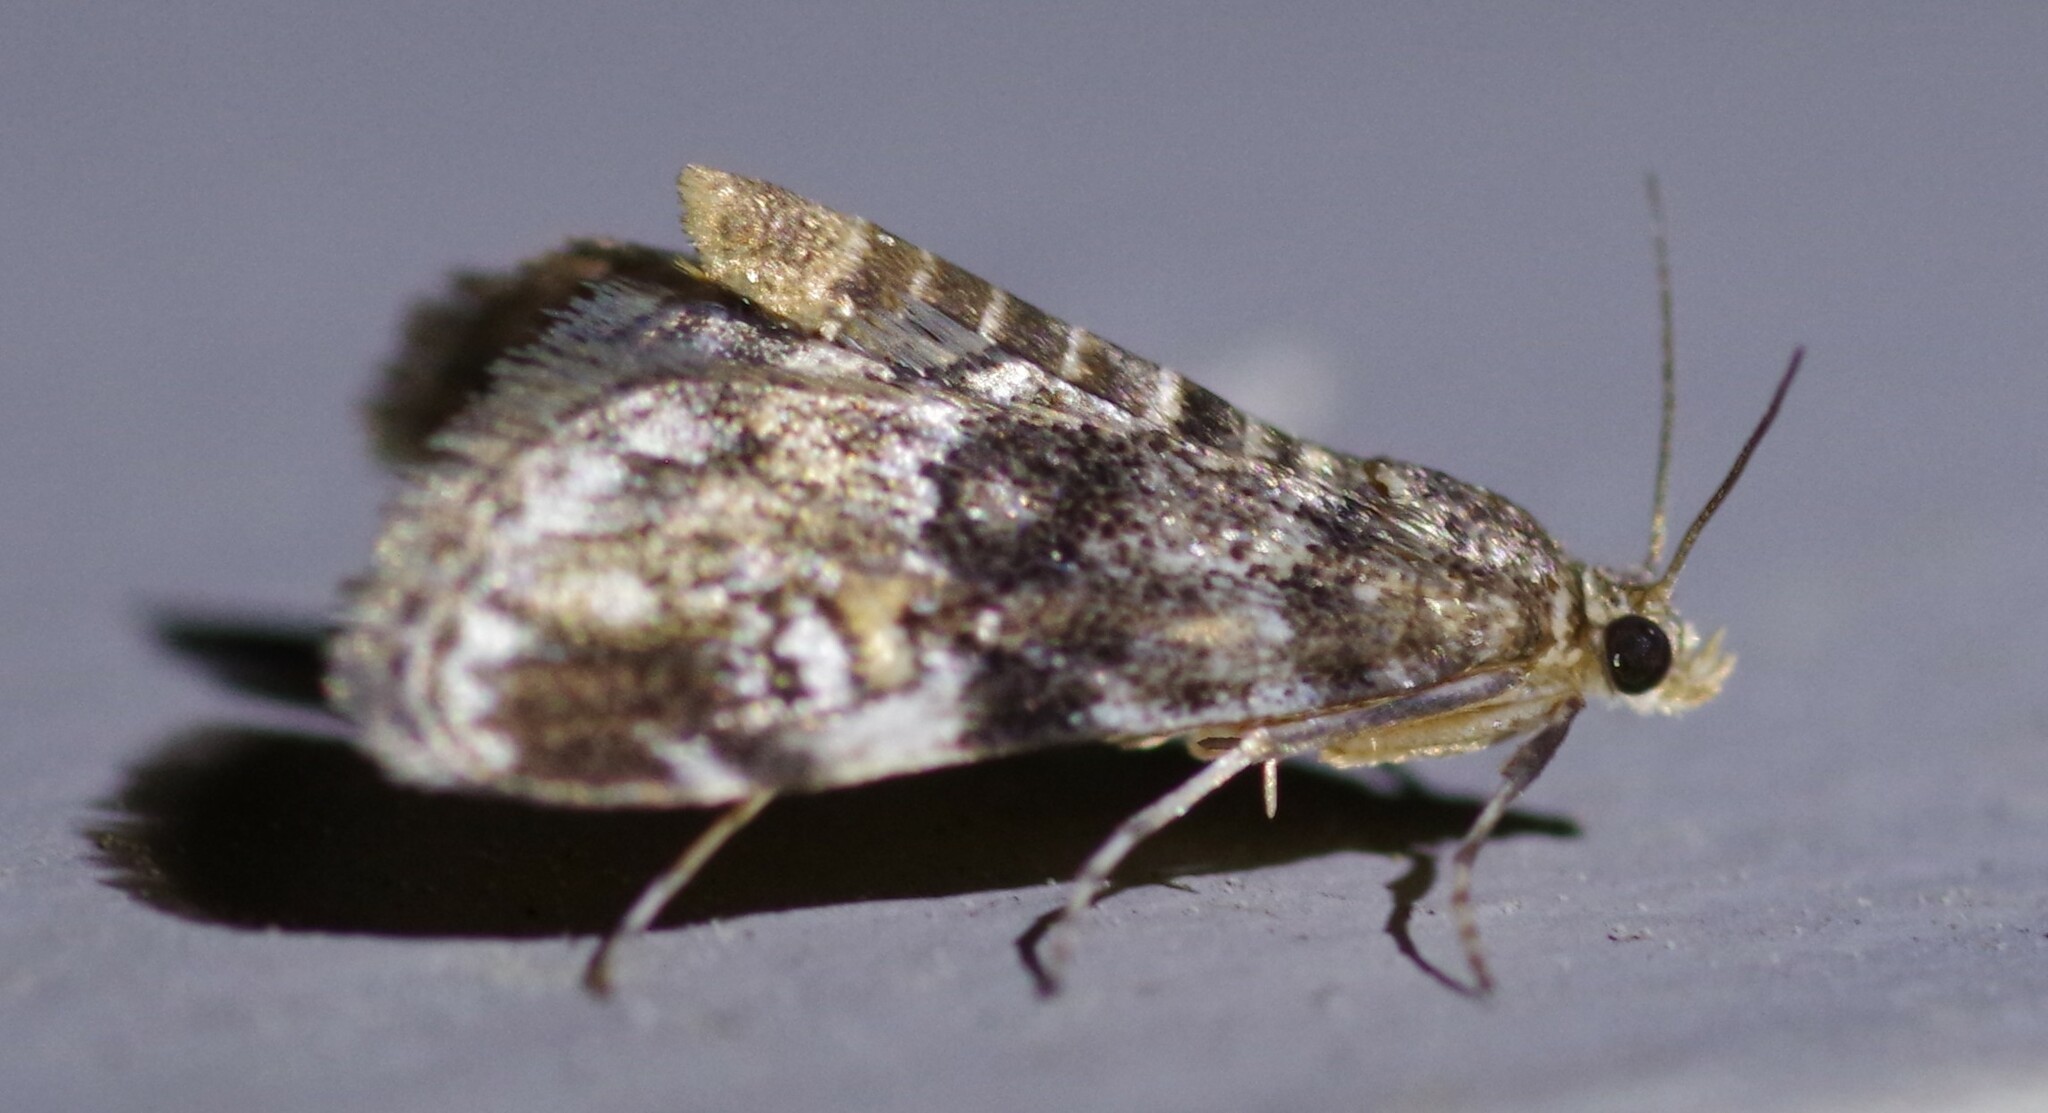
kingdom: Animalia
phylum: Arthropoda
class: Insecta
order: Lepidoptera
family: Crambidae
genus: Elophila
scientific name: Elophila obliteralis
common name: Waterlily leafcutter moth
